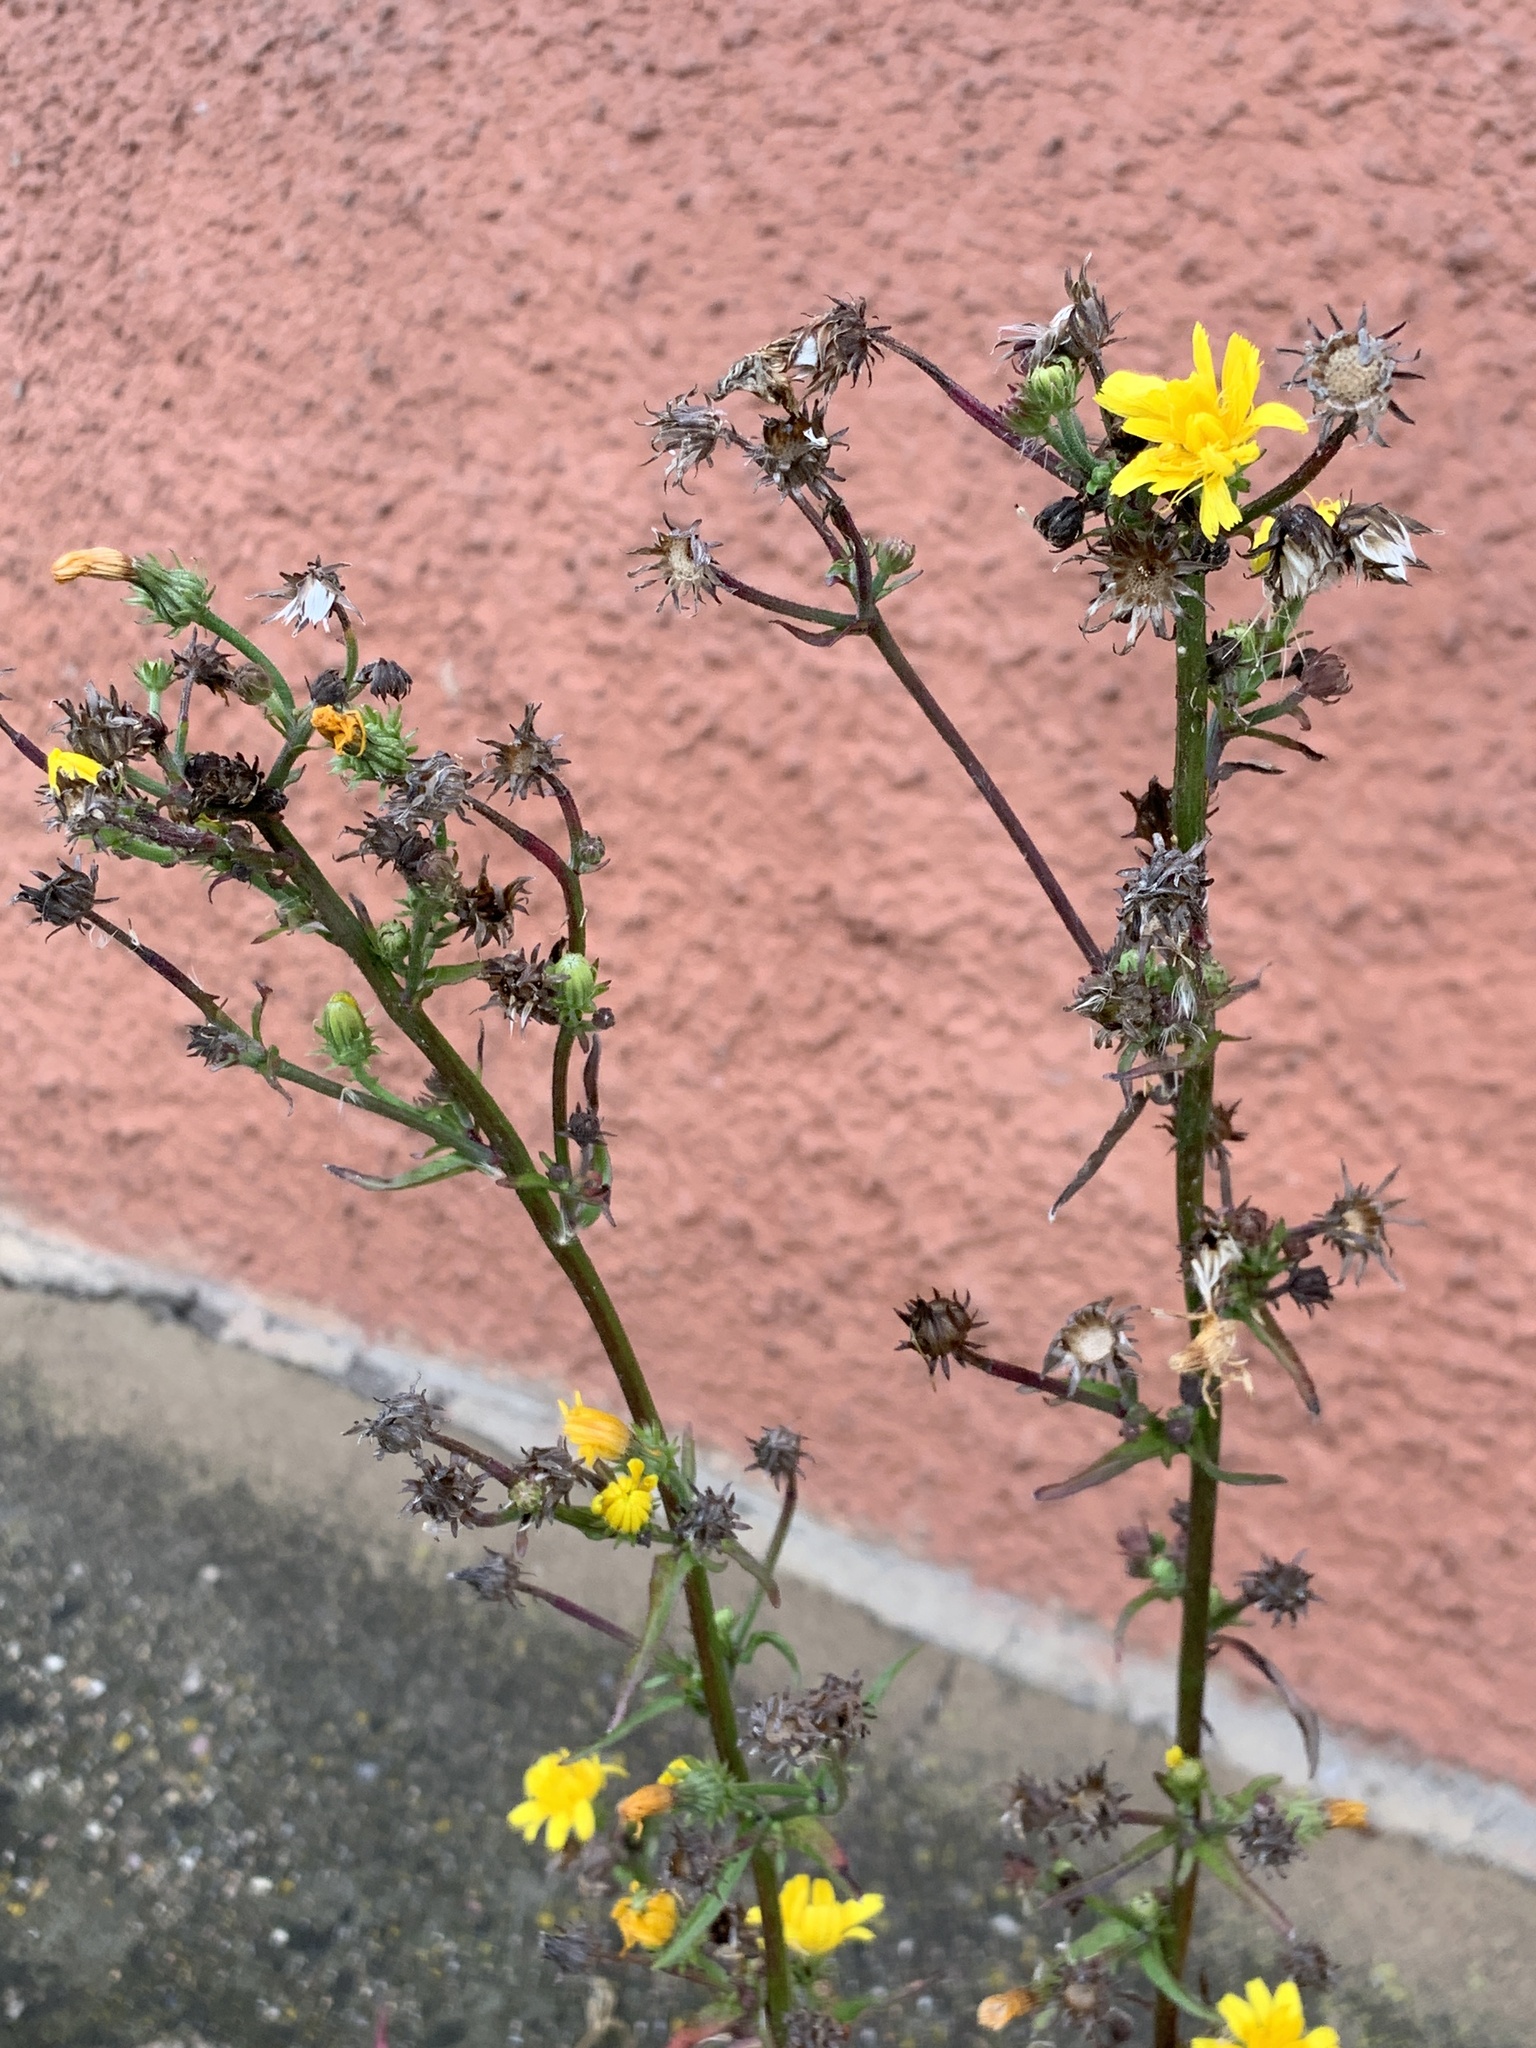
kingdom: Plantae
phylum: Tracheophyta
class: Magnoliopsida
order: Asterales
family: Asteraceae
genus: Picris
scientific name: Picris hieracioides
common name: Hawkweed oxtongue
